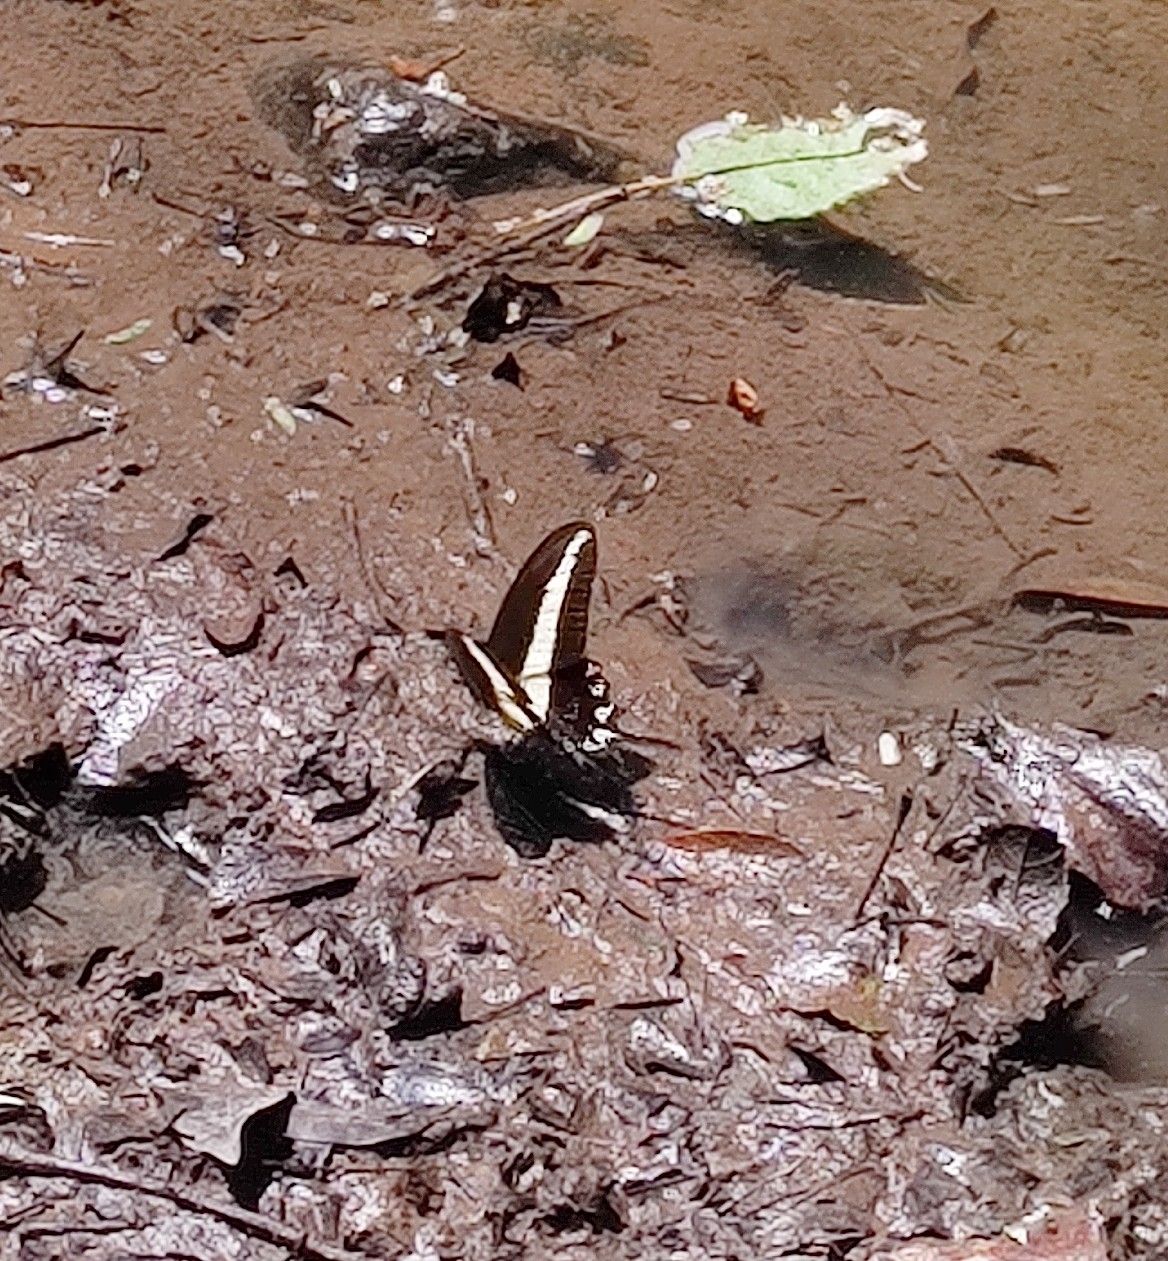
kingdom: Animalia
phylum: Arthropoda
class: Insecta
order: Lepidoptera
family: Papilionidae
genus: Heraclides
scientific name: Heraclides hectorides
